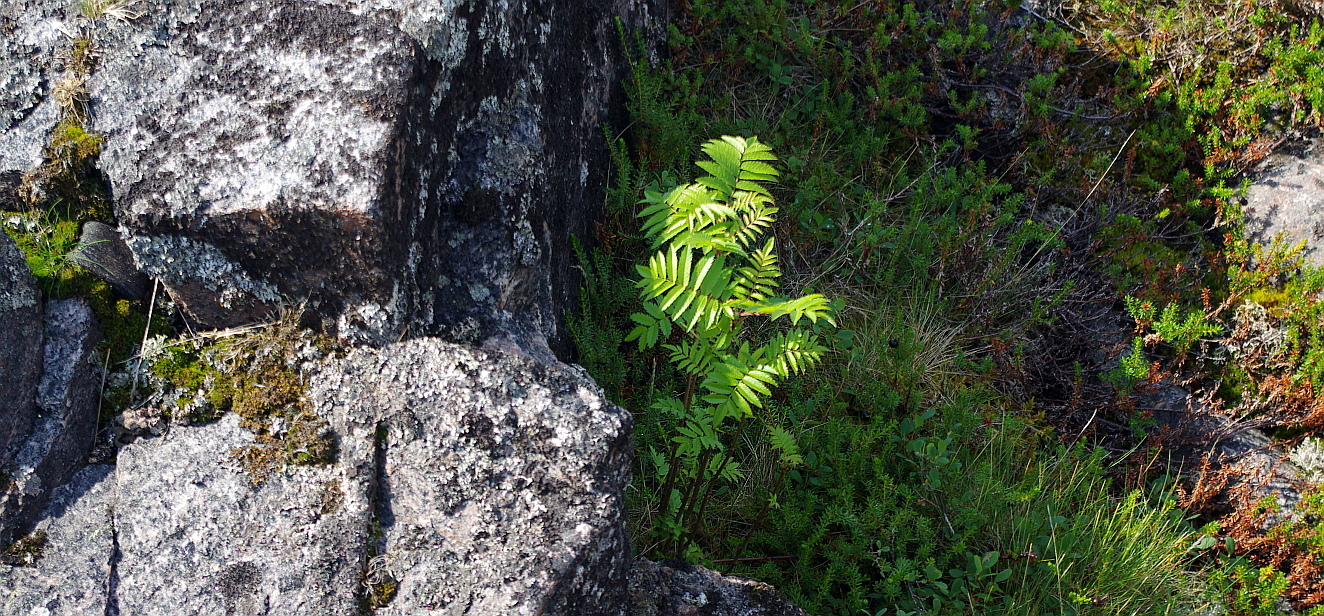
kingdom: Plantae
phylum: Tracheophyta
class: Magnoliopsida
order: Rosales
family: Rosaceae
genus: Sorbus
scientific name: Sorbus aucuparia
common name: Rowan
